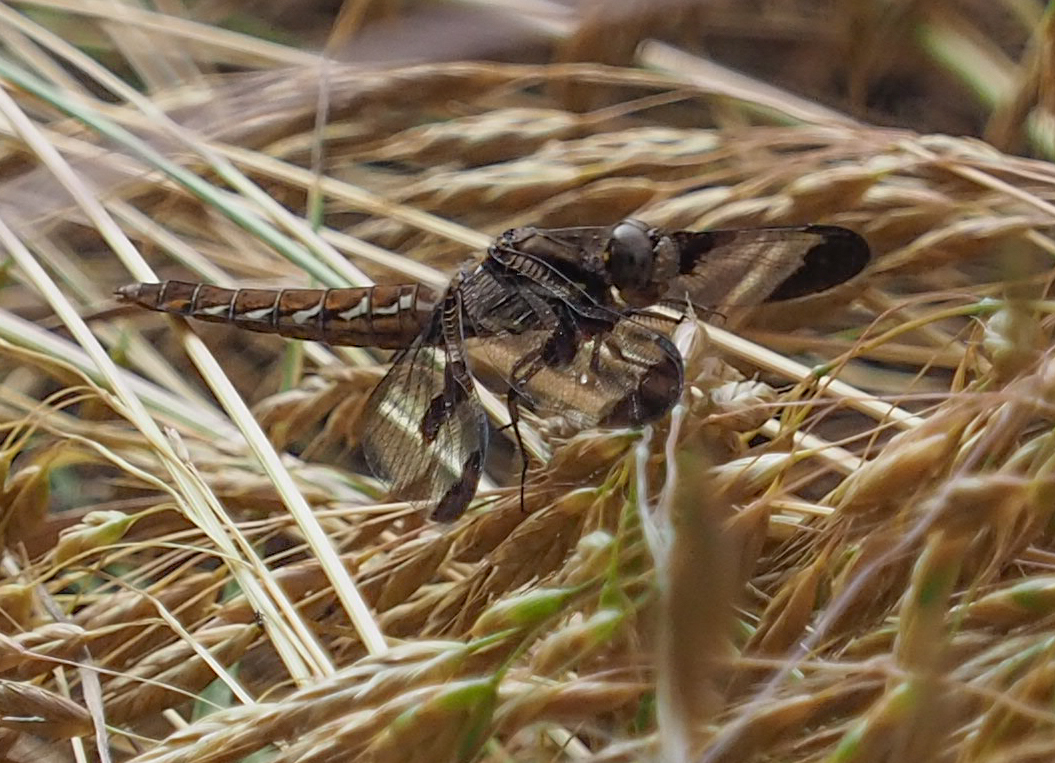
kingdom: Animalia
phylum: Arthropoda
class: Insecta
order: Odonata
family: Libellulidae
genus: Plathemis
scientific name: Plathemis lydia
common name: Common whitetail
